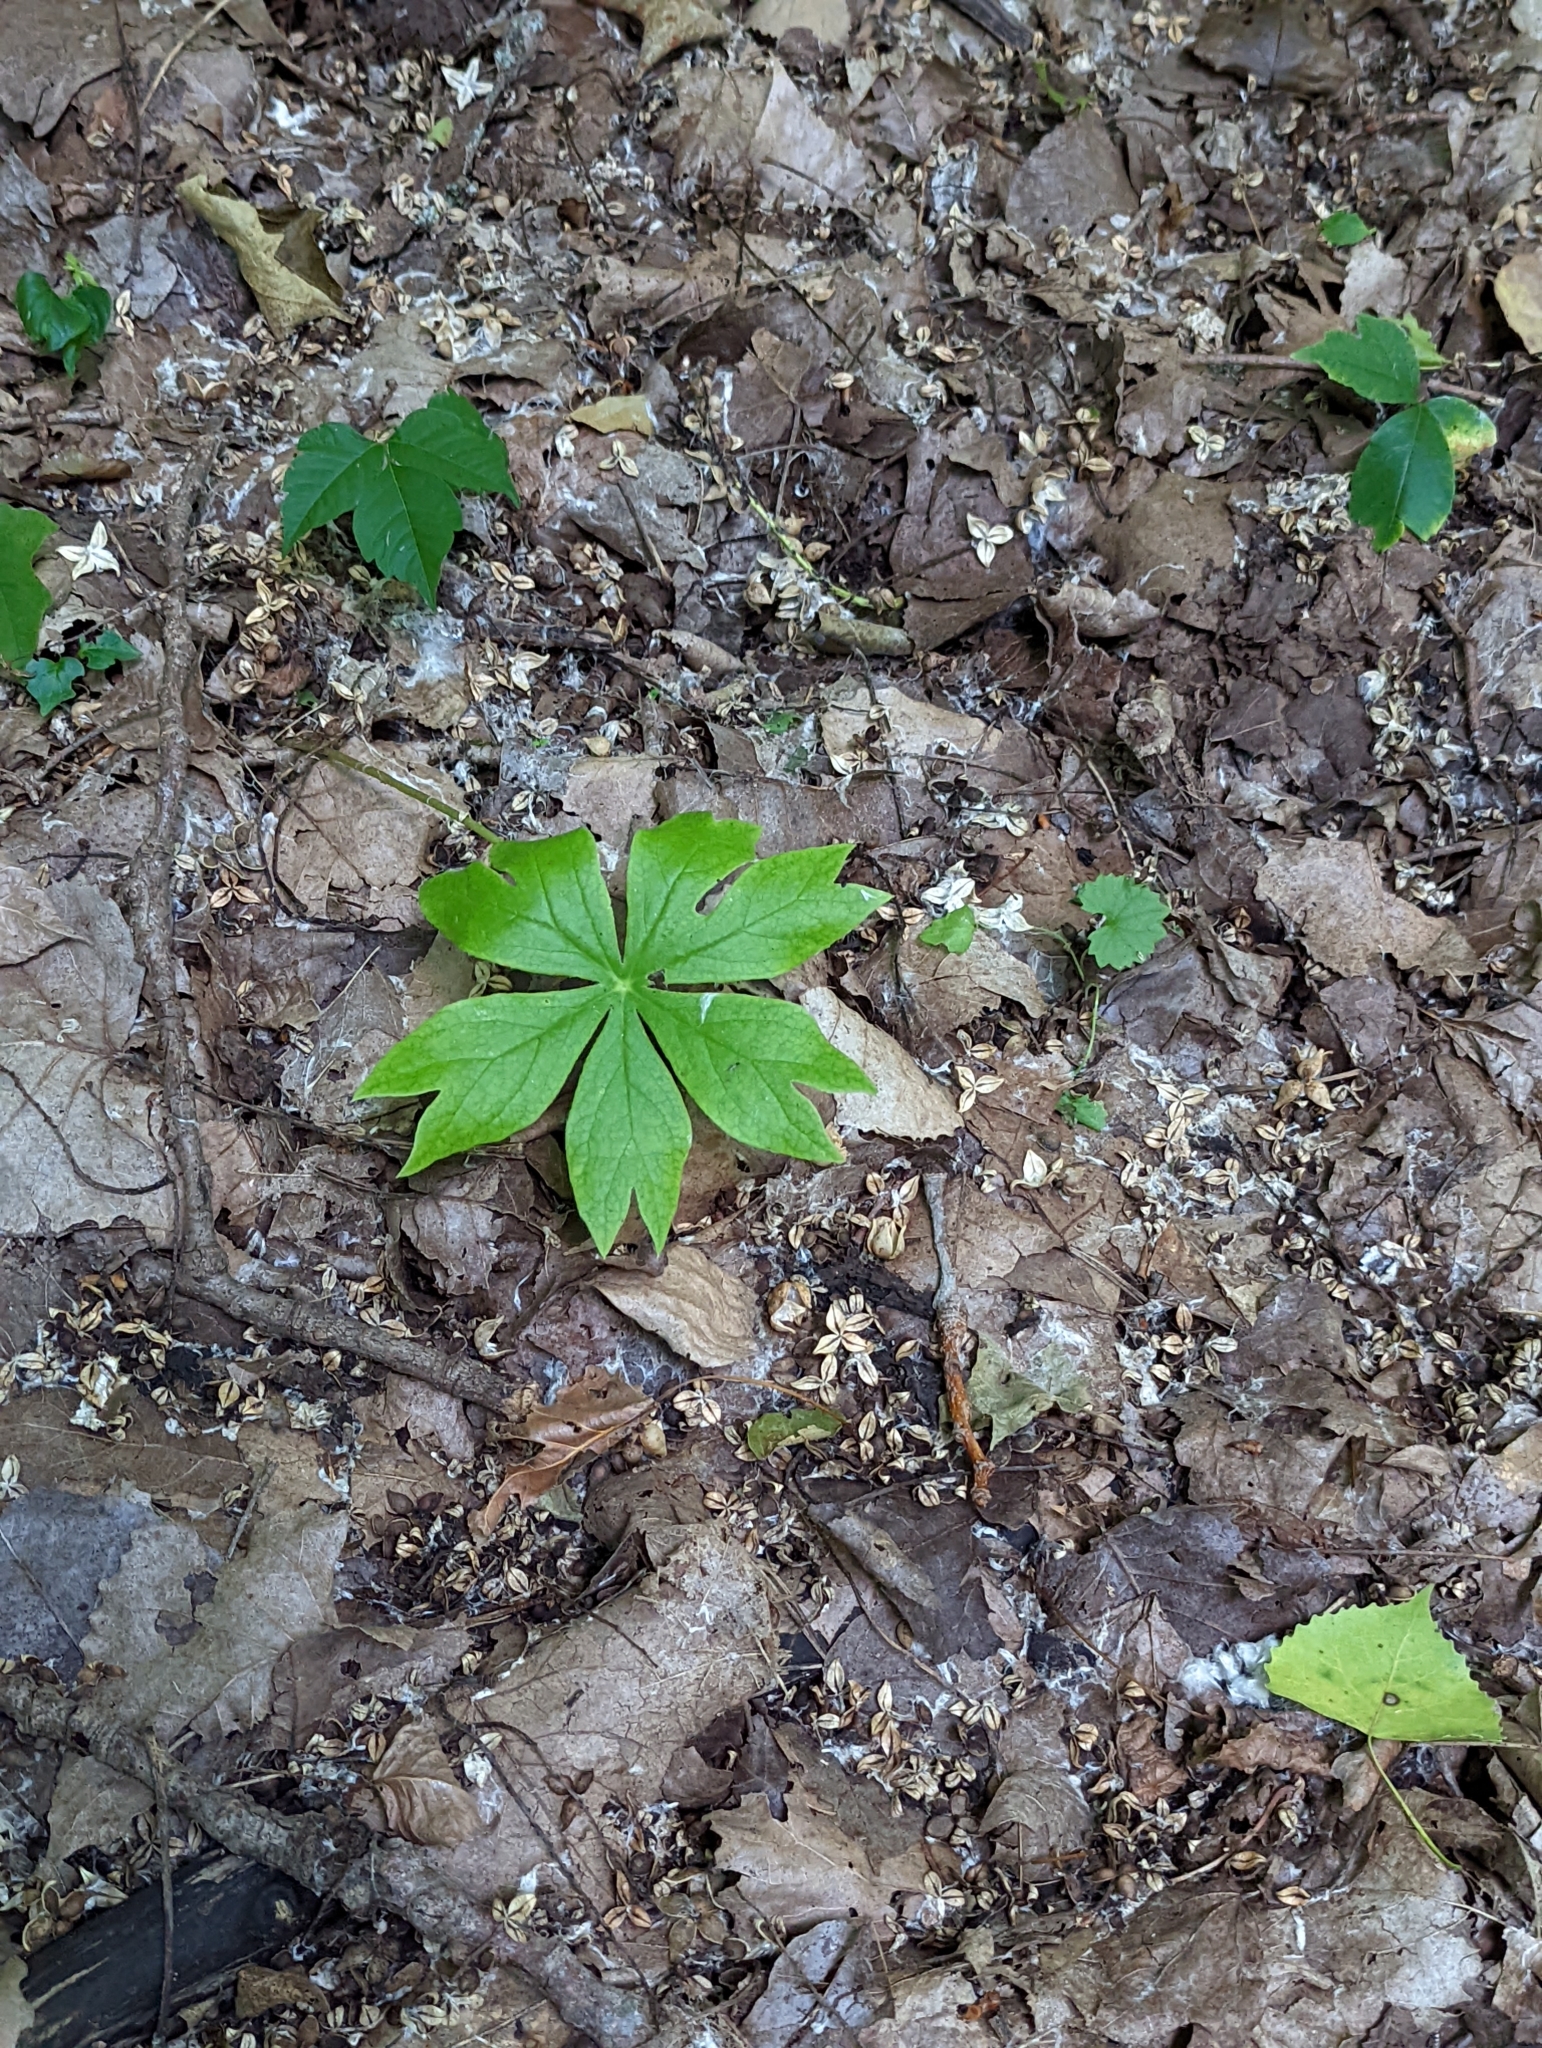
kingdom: Plantae
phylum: Tracheophyta
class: Magnoliopsida
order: Ranunculales
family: Berberidaceae
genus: Podophyllum
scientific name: Podophyllum peltatum
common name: Wild mandrake
